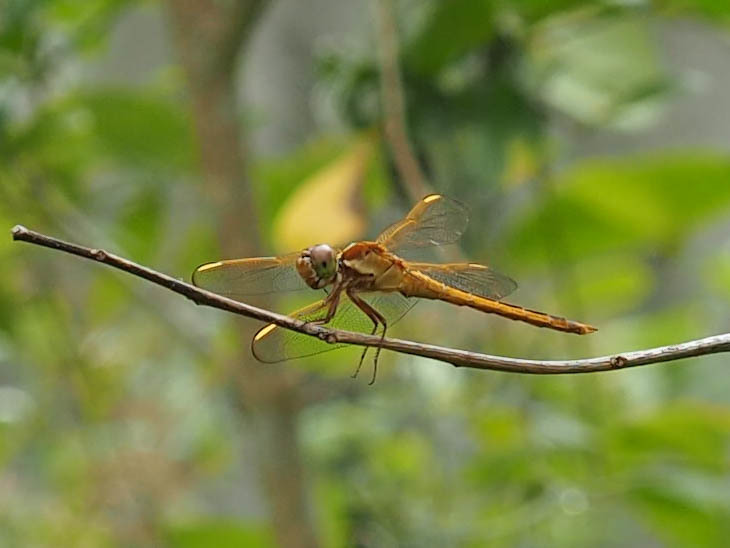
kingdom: Animalia
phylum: Arthropoda
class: Insecta
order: Odonata
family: Libellulidae
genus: Libellula
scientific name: Libellula needhami
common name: Needham's skimmer
